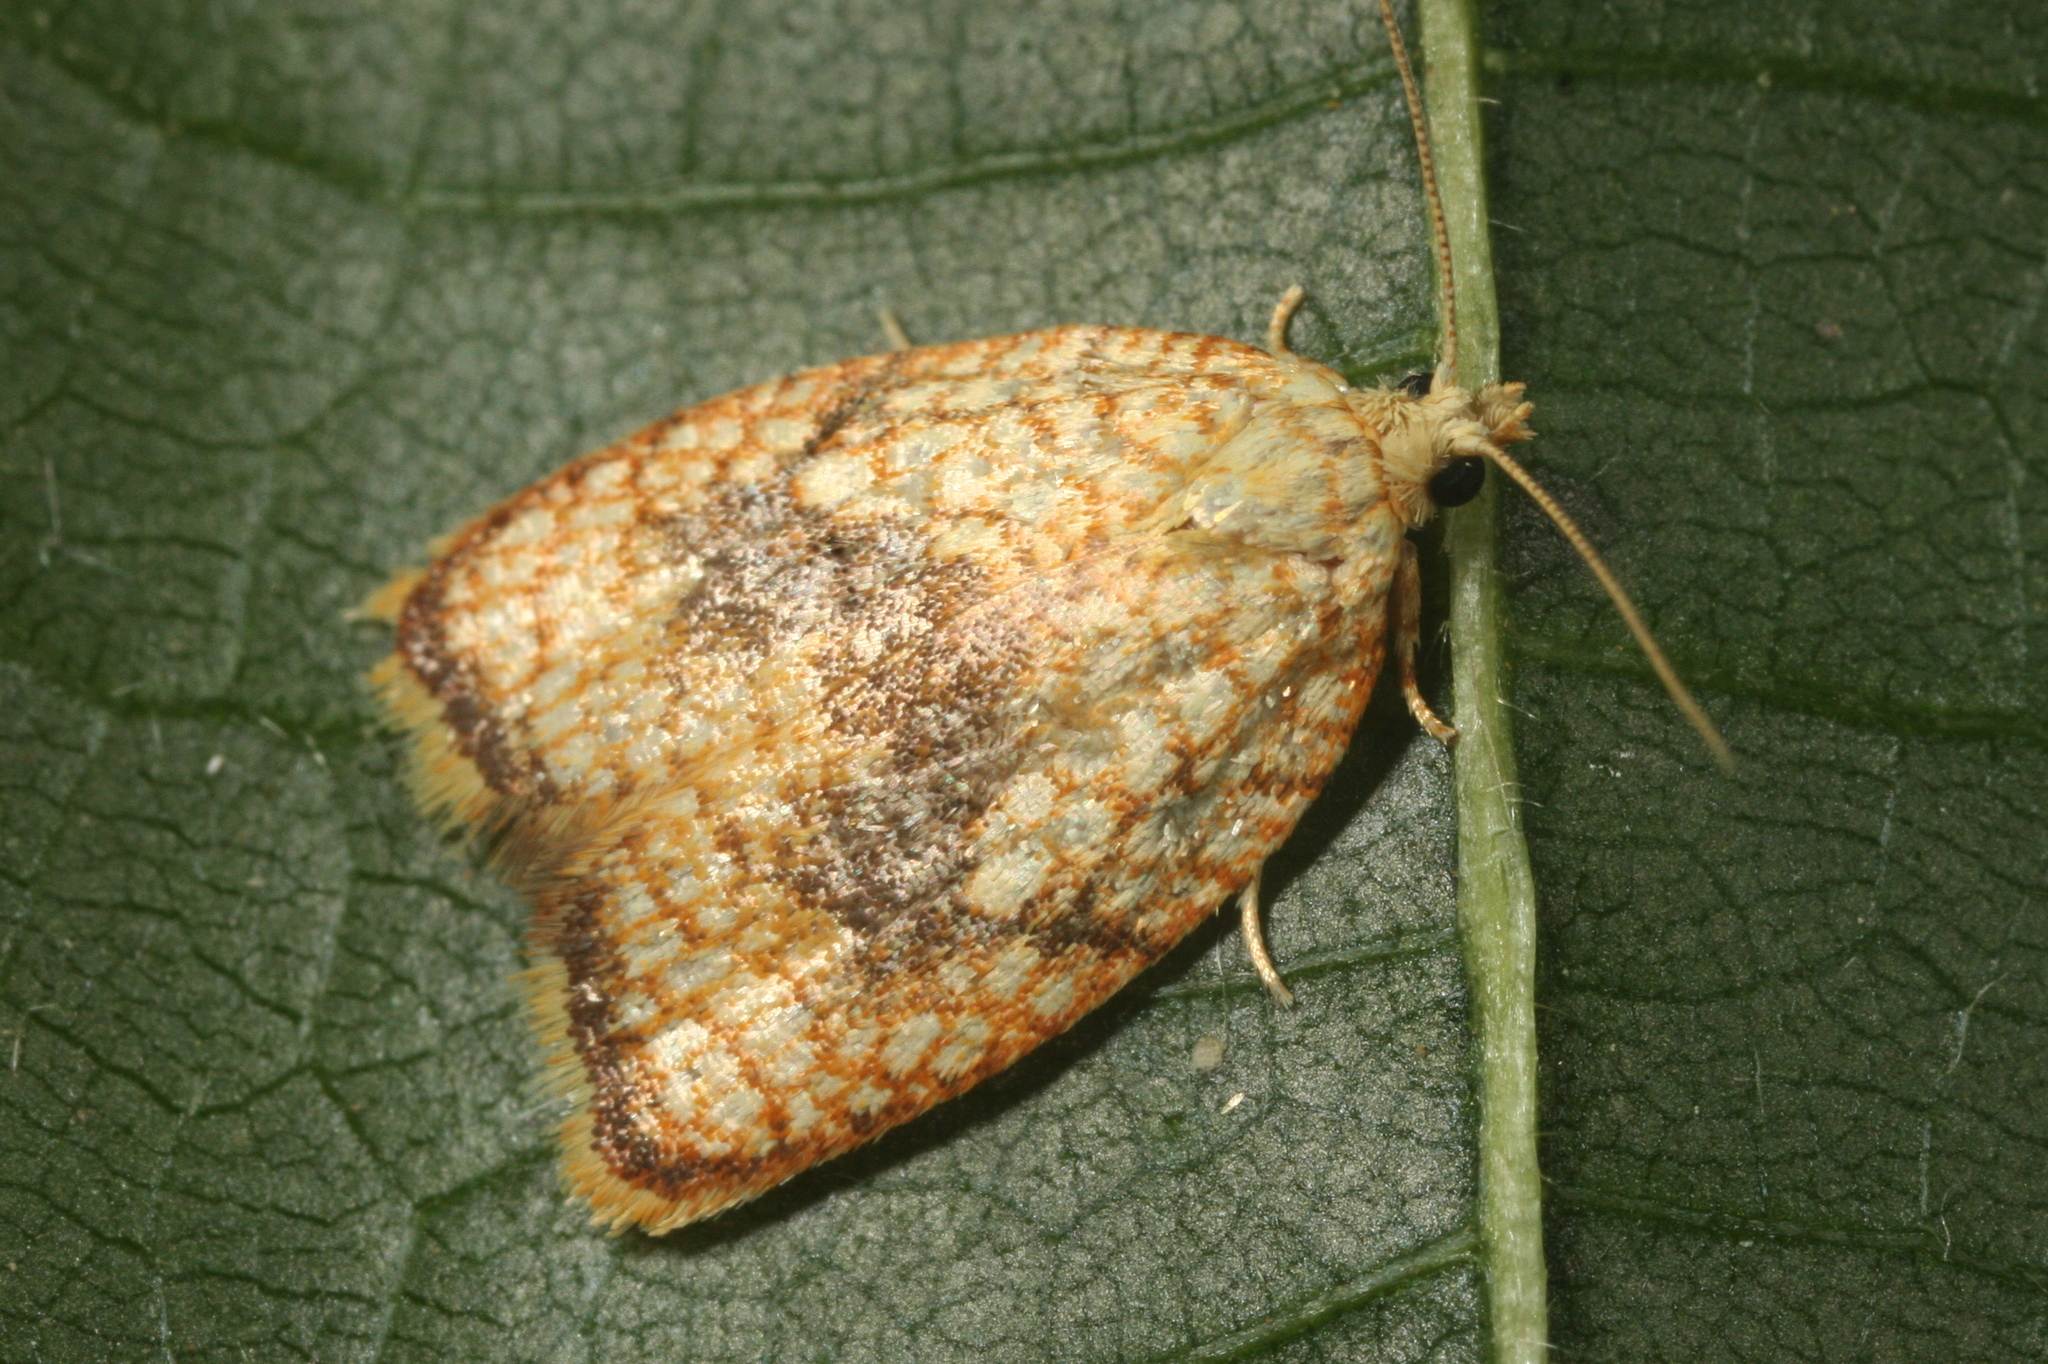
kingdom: Animalia
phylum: Arthropoda
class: Insecta
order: Lepidoptera
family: Tortricidae
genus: Acleris
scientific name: Acleris forsskaleana
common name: Maple button
